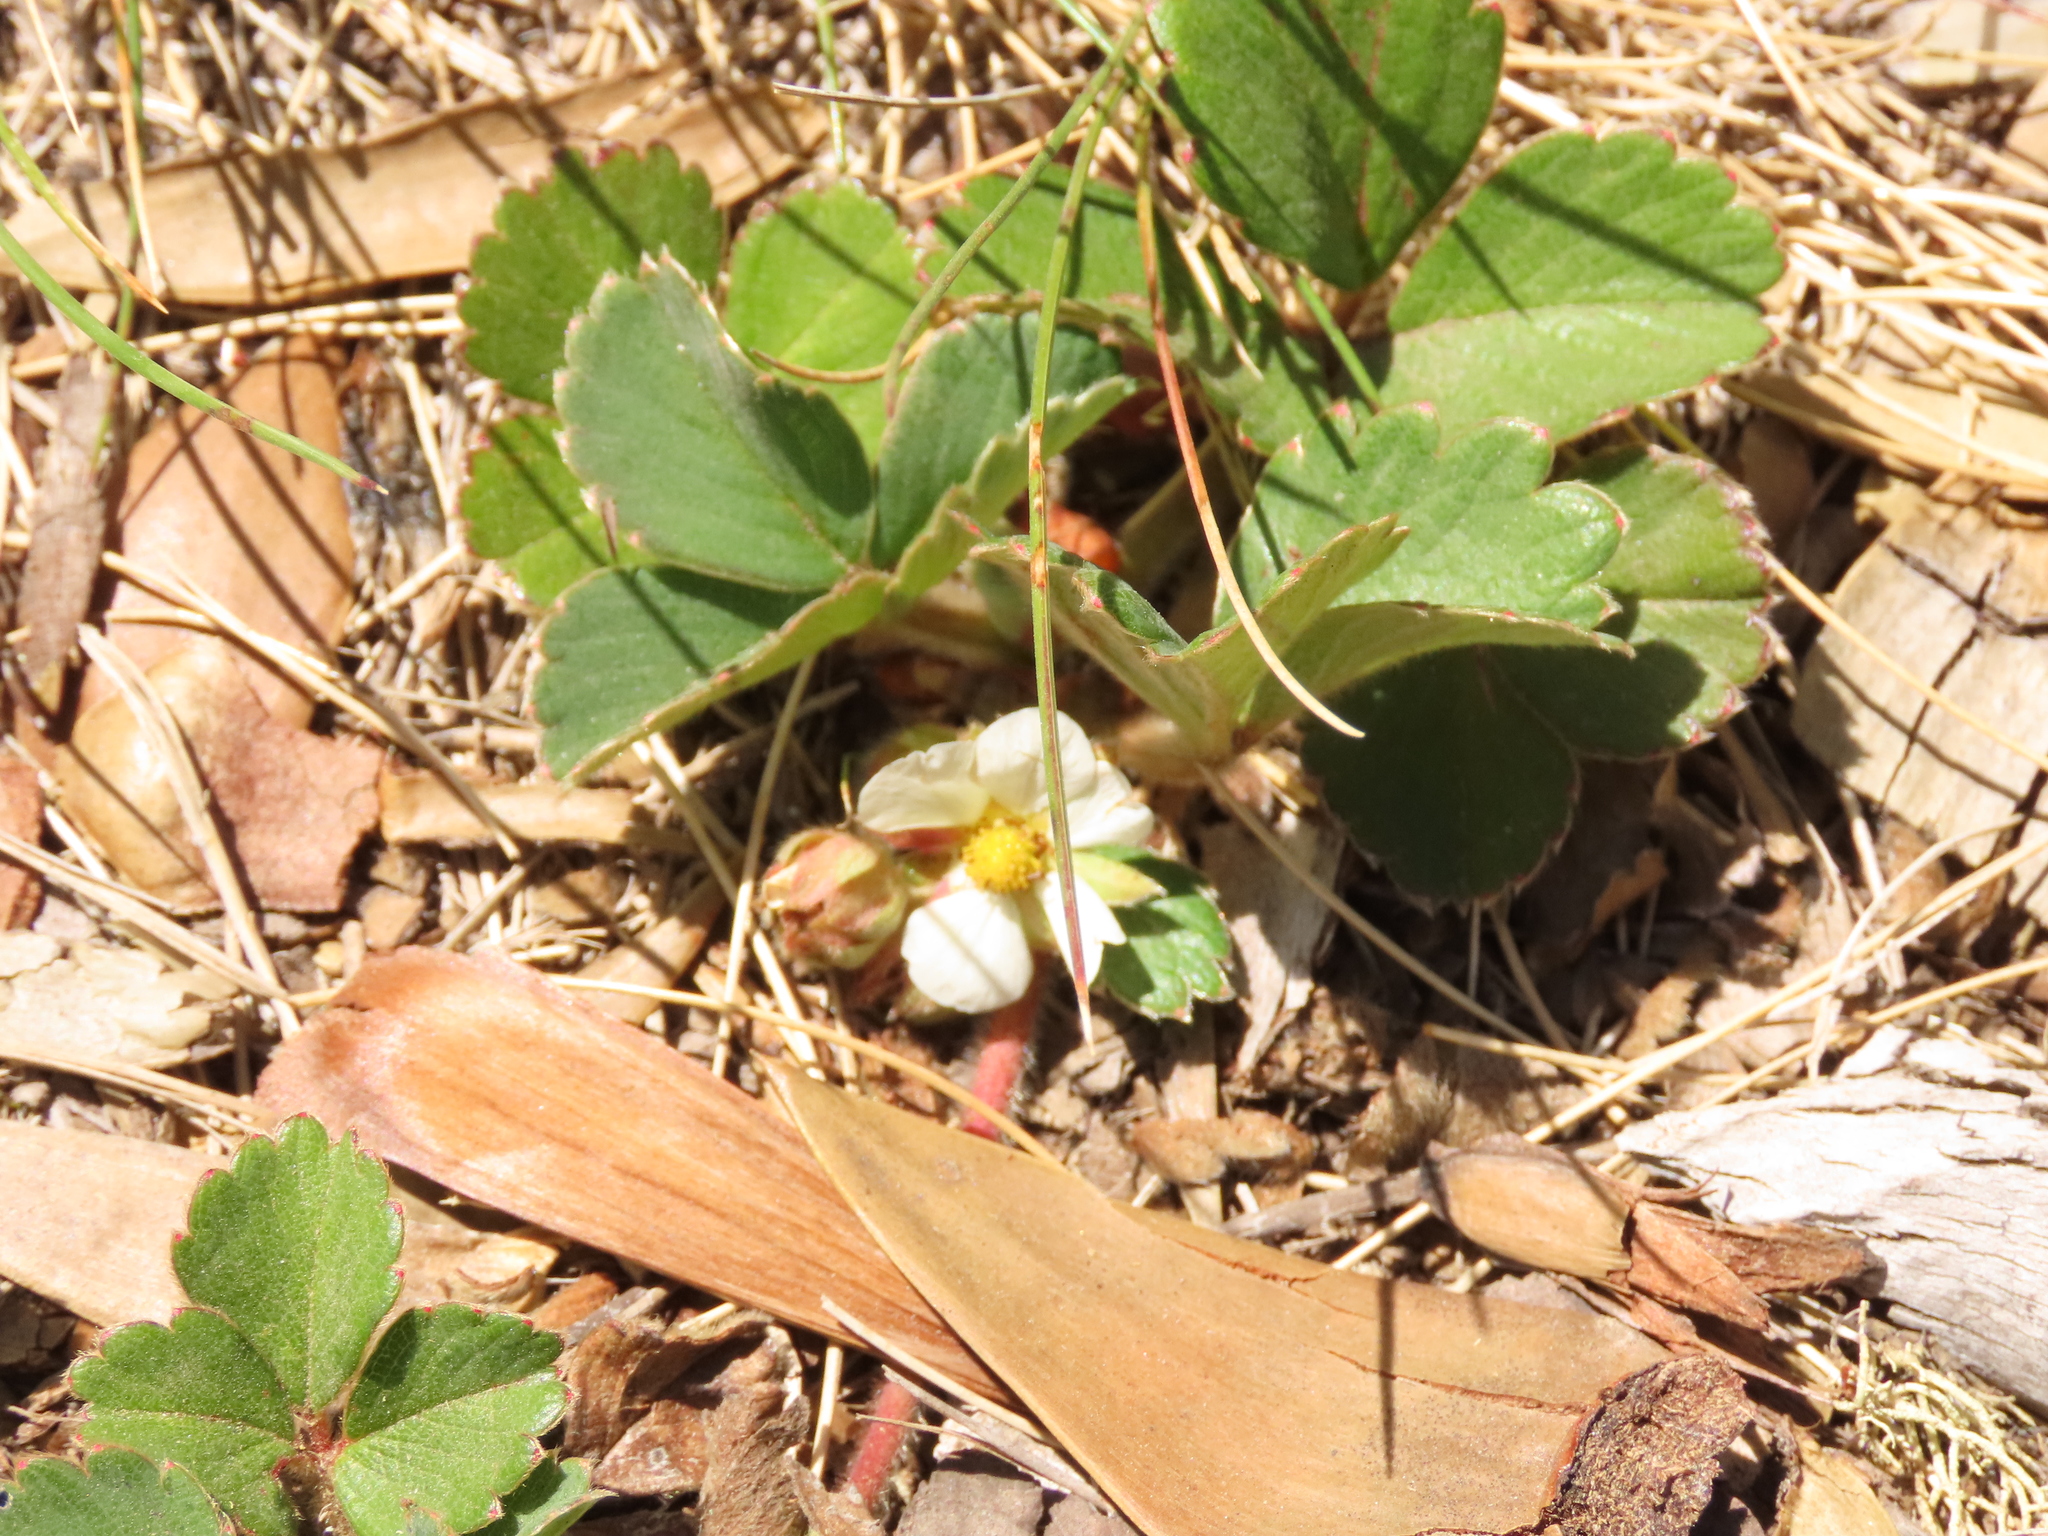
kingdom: Plantae
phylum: Tracheophyta
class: Magnoliopsida
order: Rosales
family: Rosaceae
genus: Fragaria
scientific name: Fragaria chiloensis
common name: Beach strawberry
